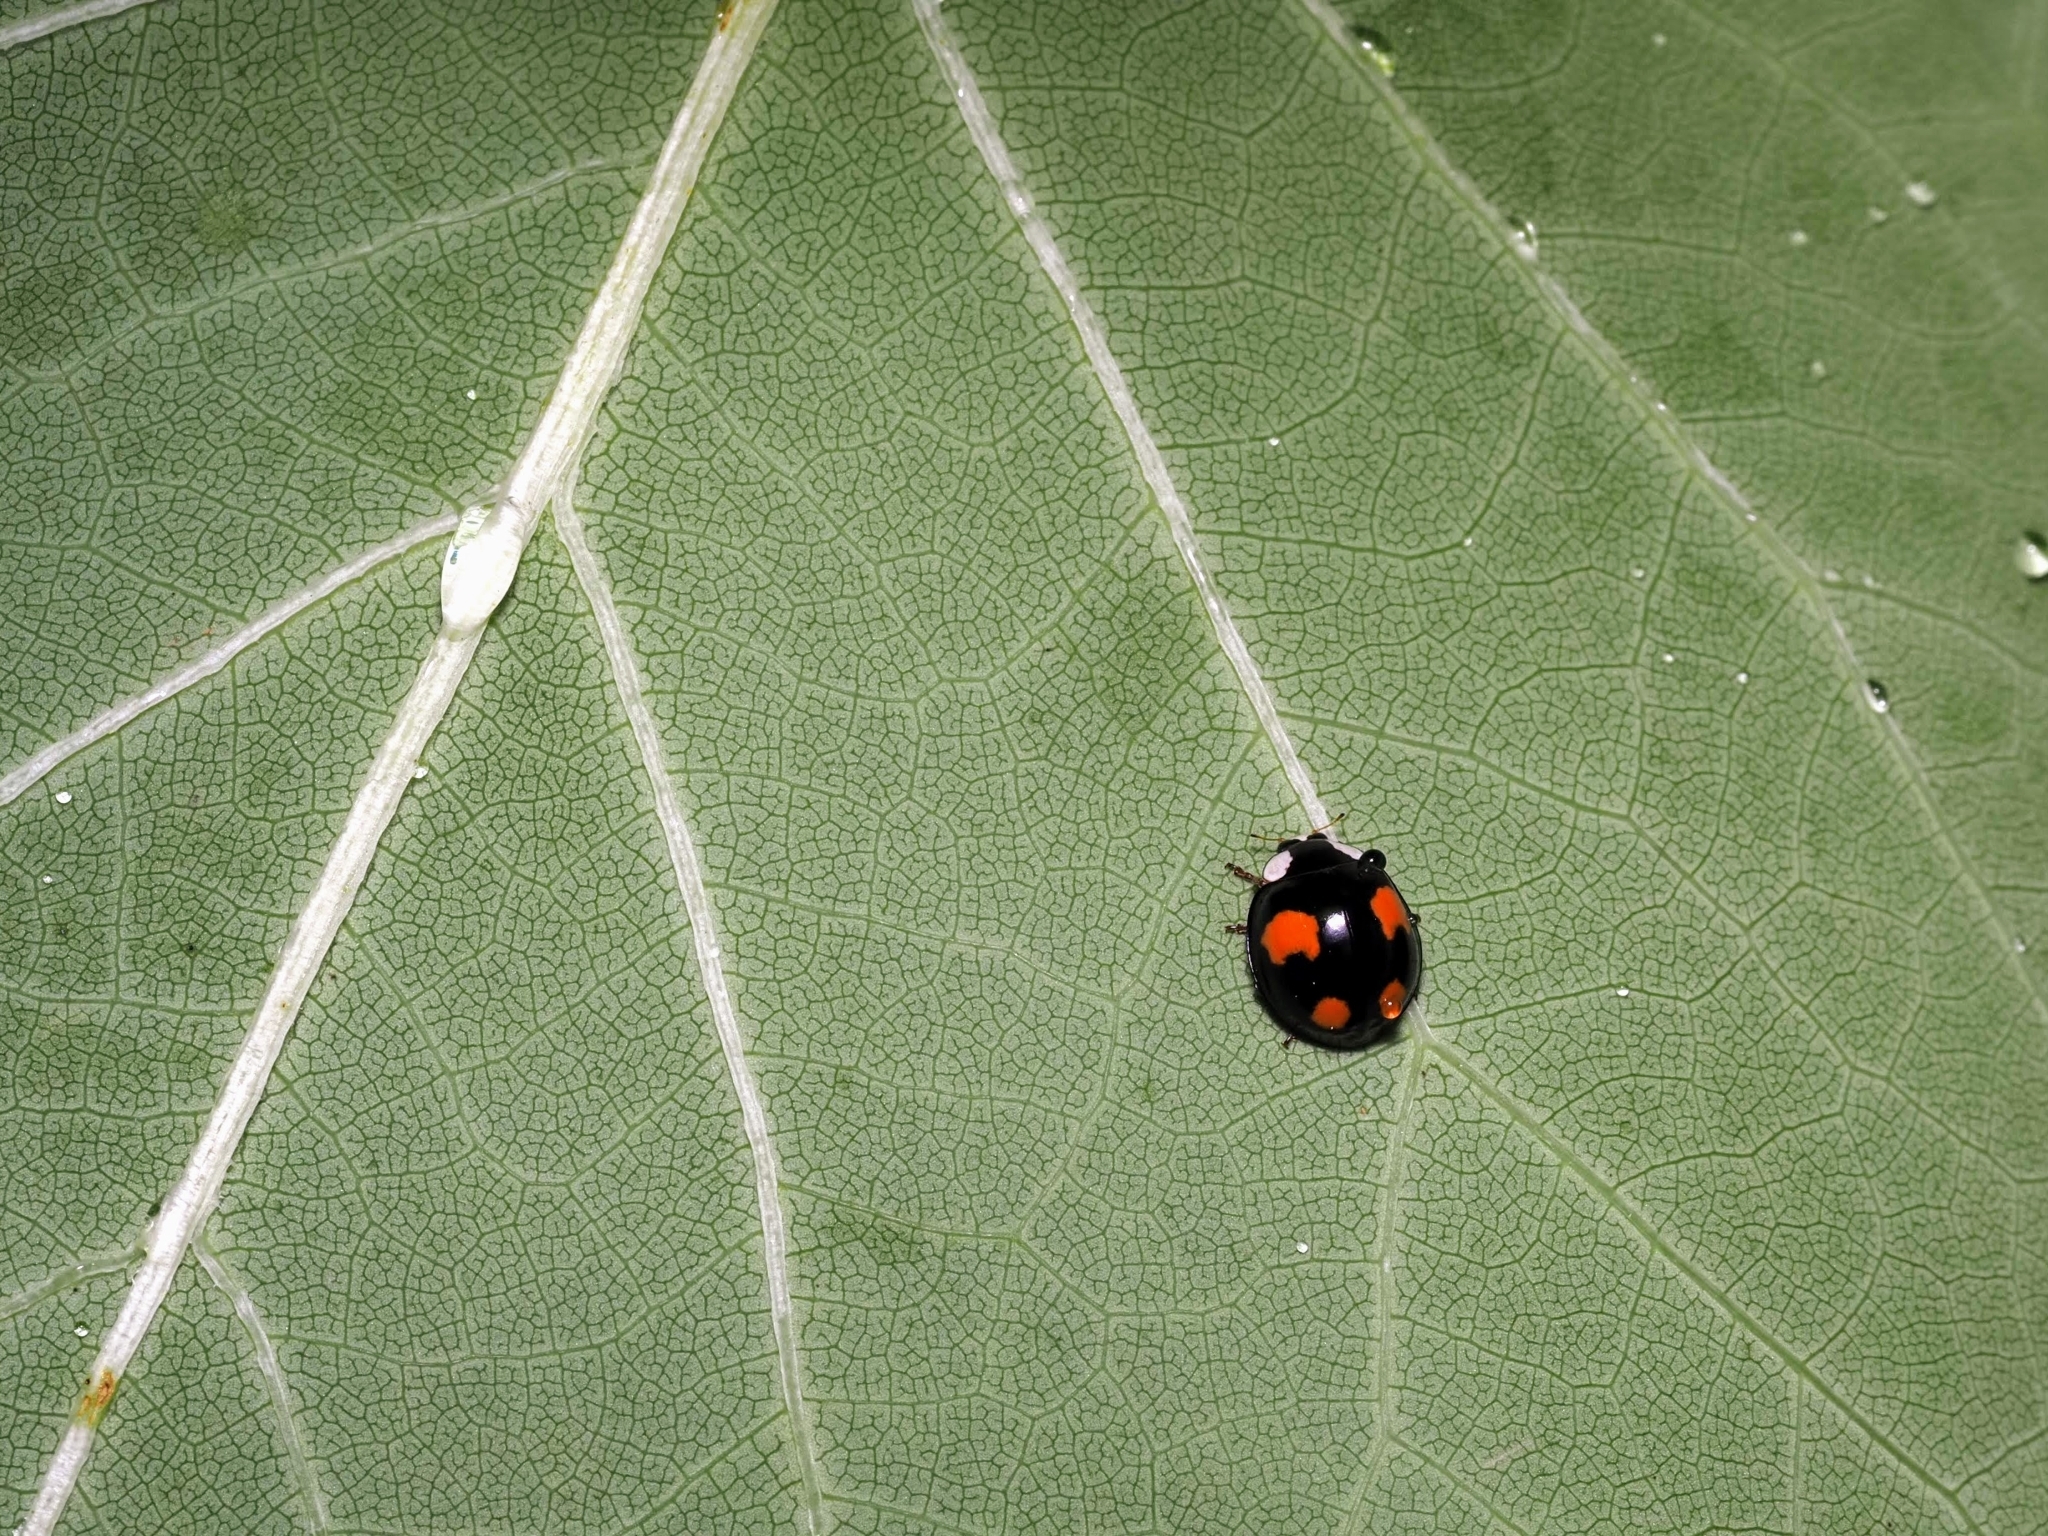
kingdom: Animalia
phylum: Arthropoda
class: Insecta
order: Coleoptera
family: Coccinellidae
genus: Harmonia
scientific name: Harmonia axyridis
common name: Harlequin ladybird
